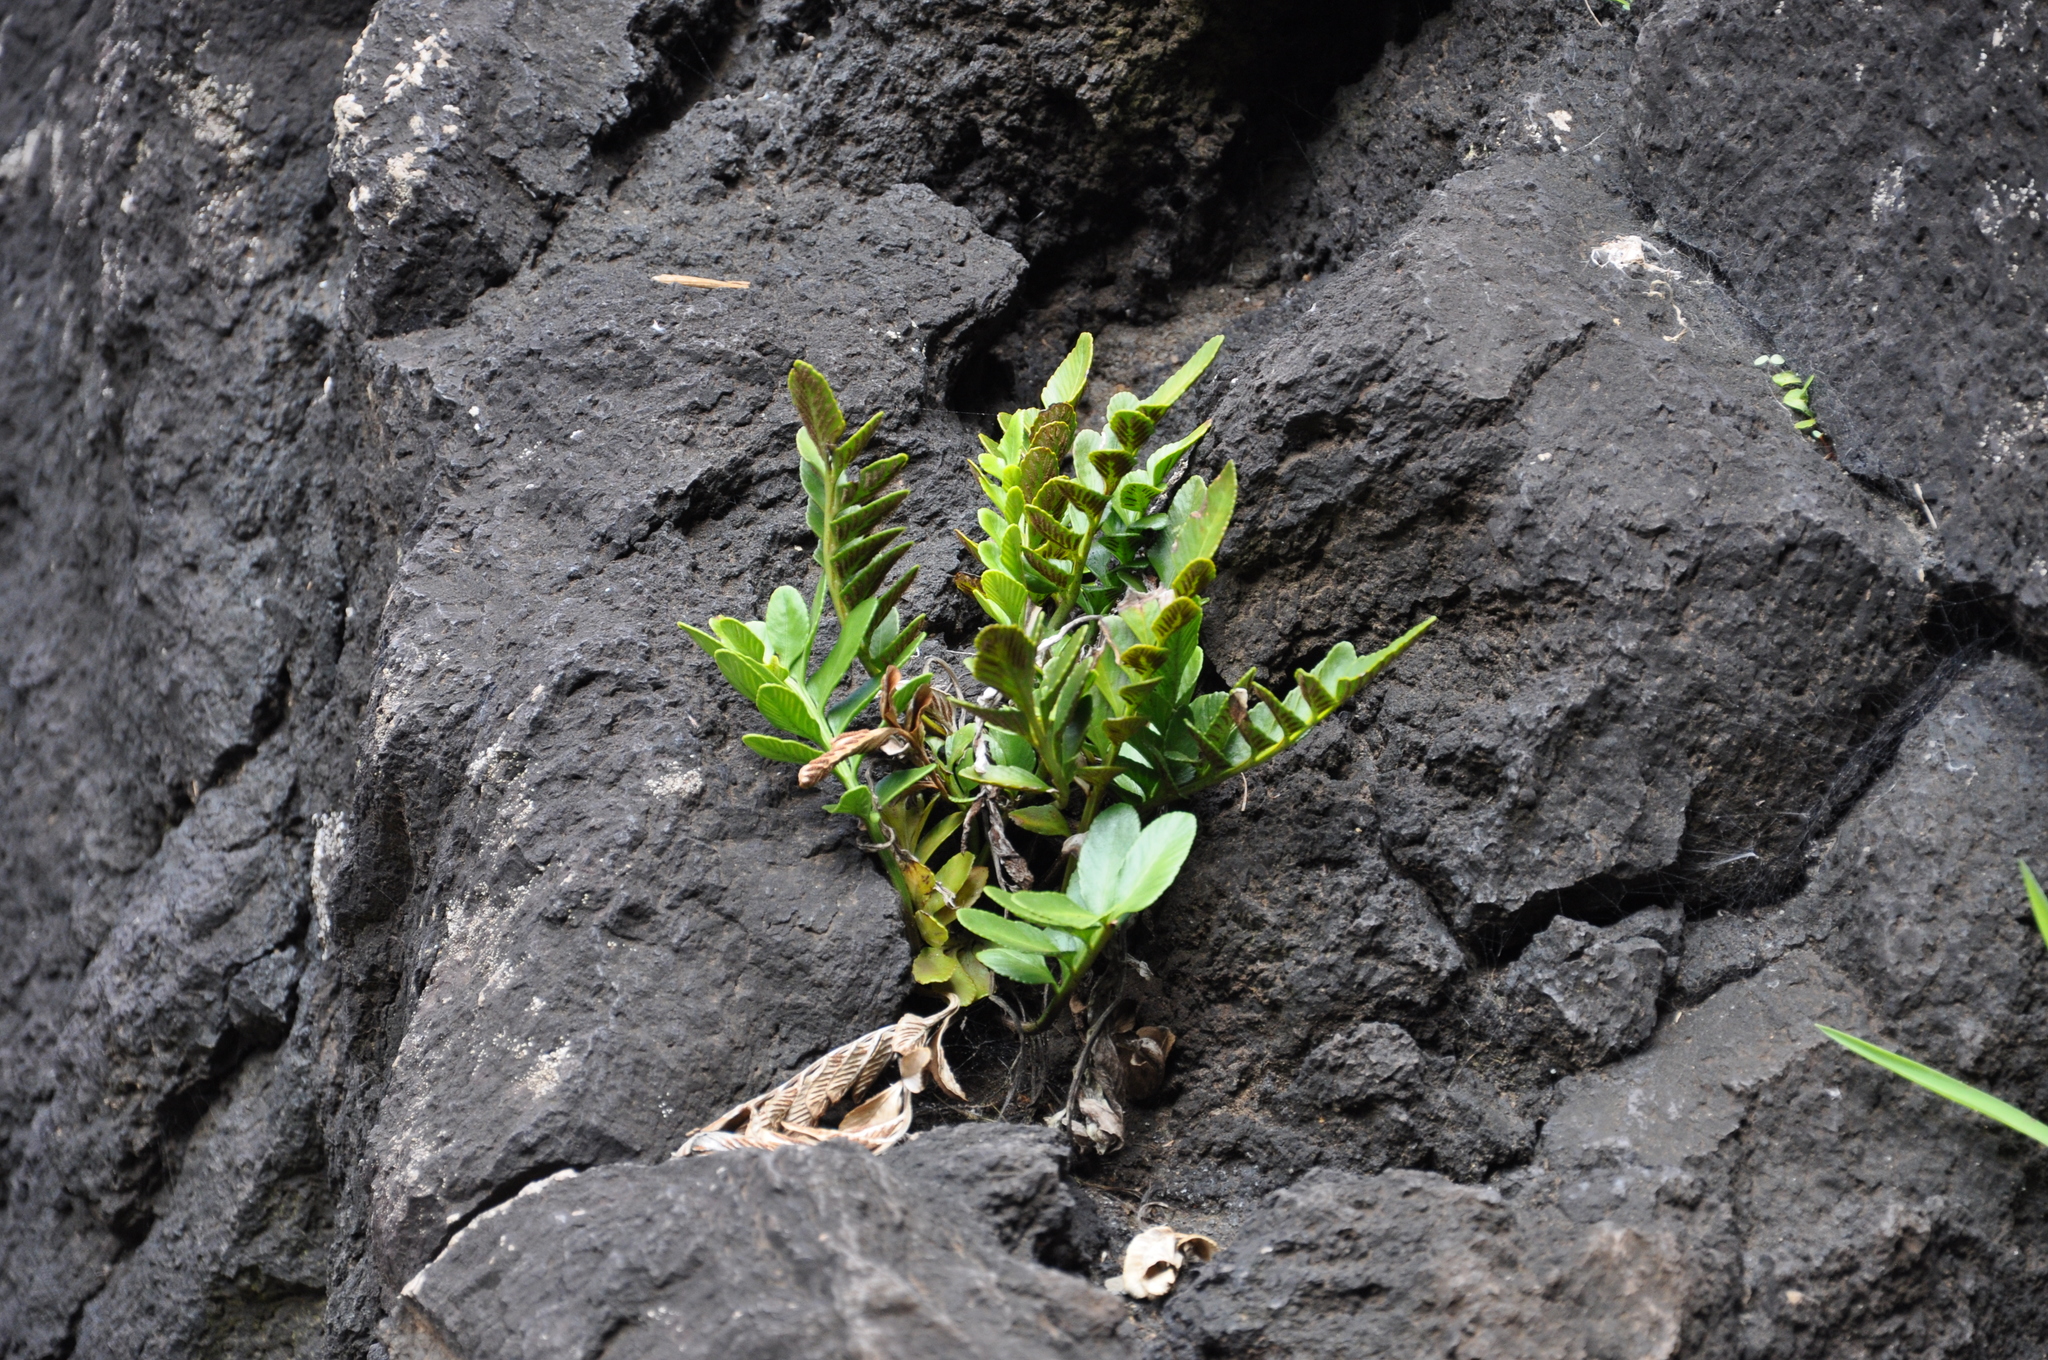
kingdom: Plantae
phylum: Tracheophyta
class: Polypodiopsida
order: Polypodiales
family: Aspleniaceae
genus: Asplenium
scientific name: Asplenium obtusatum
